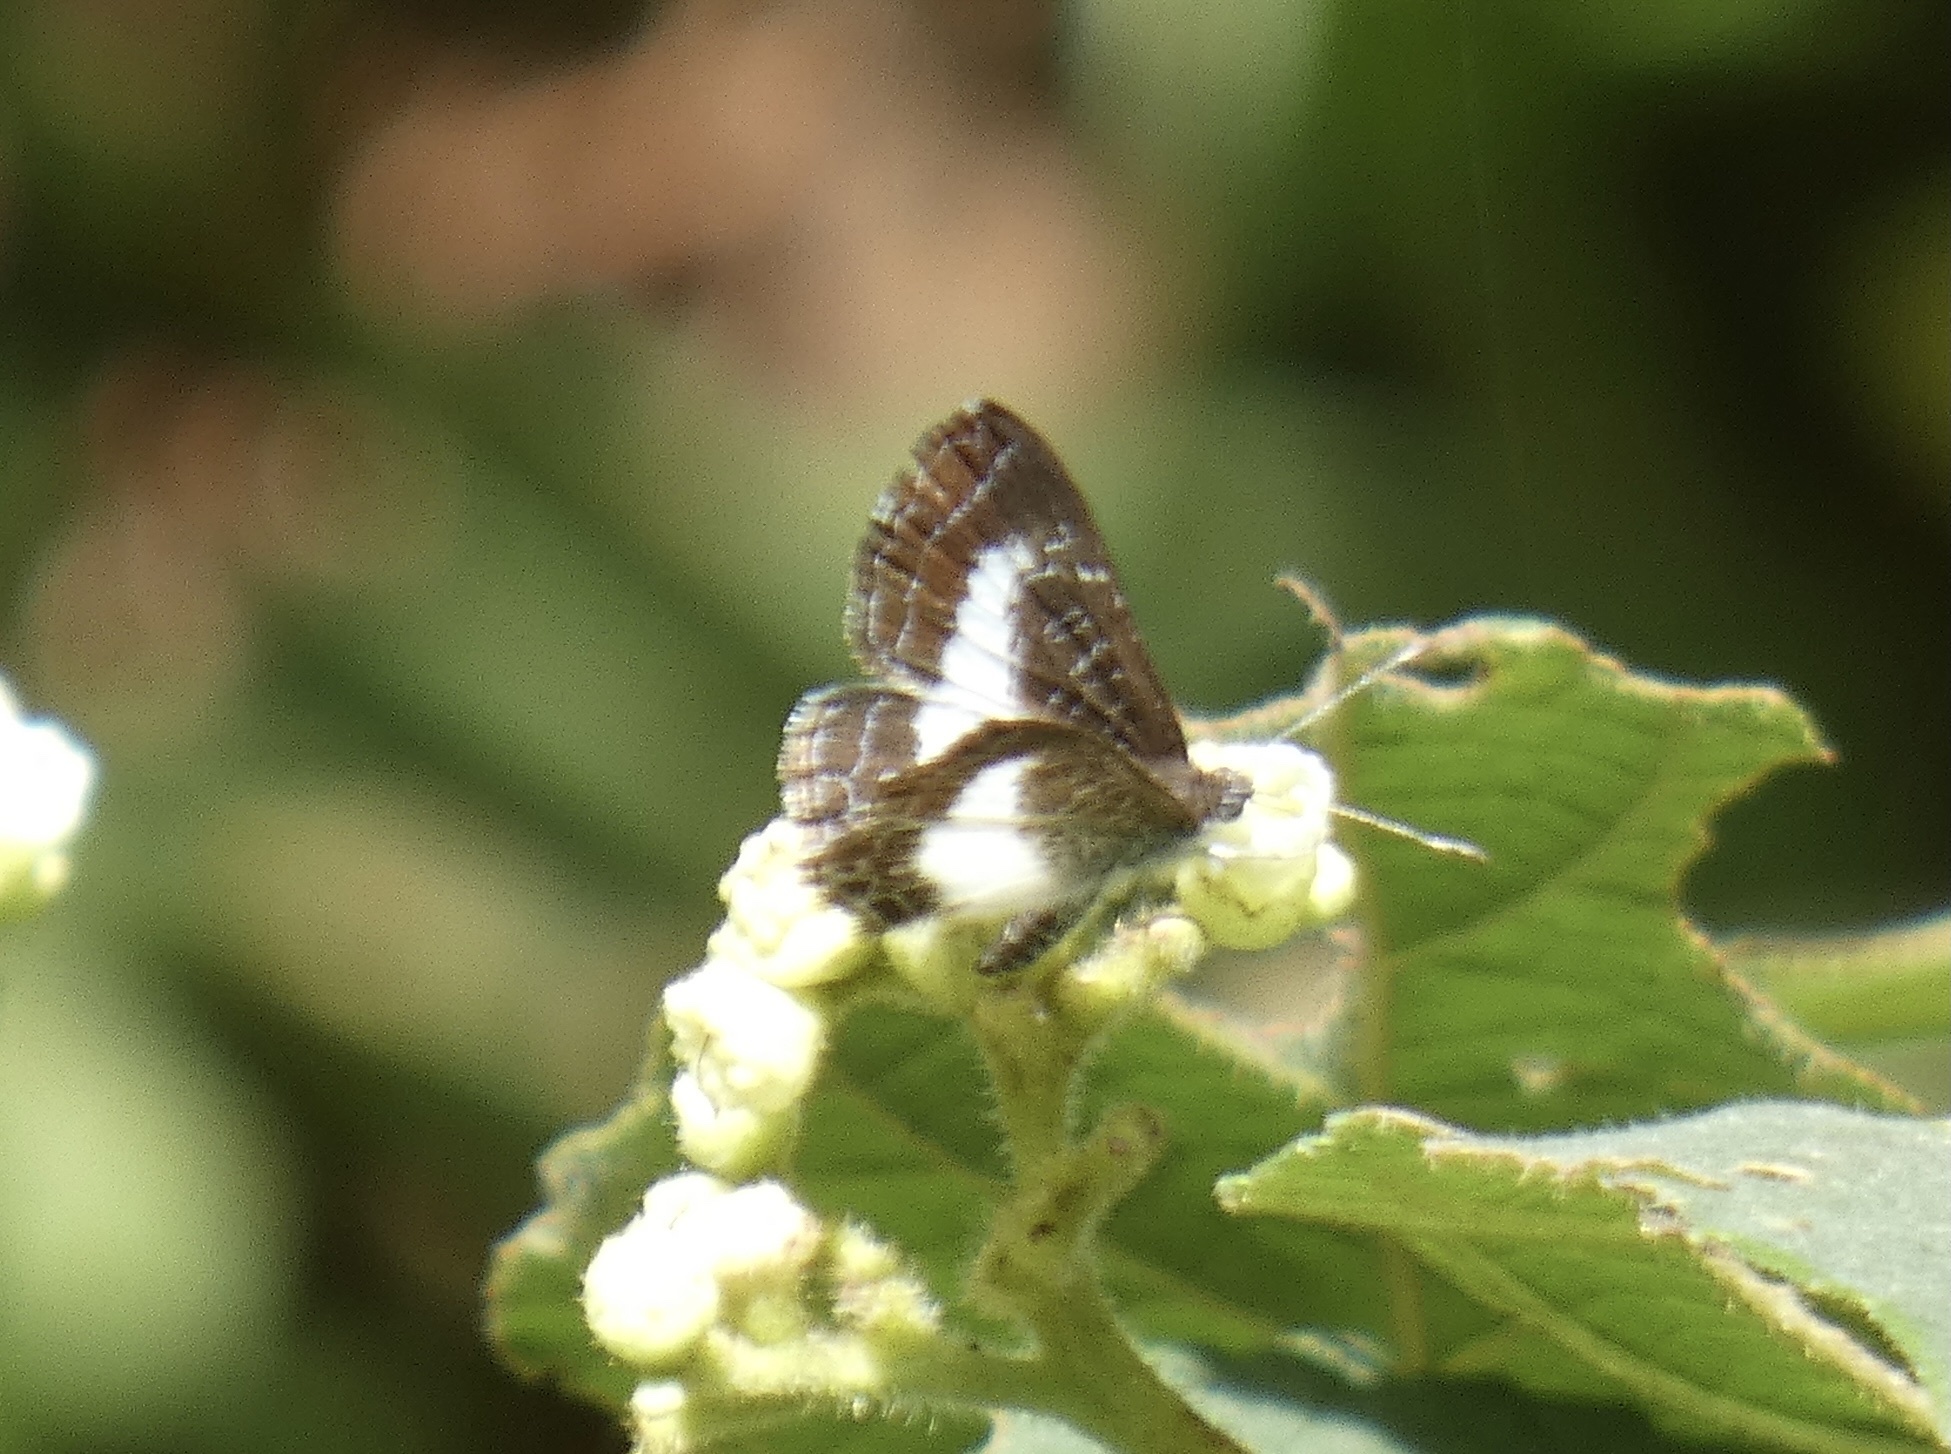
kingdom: Animalia
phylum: Arthropoda
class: Insecta
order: Lepidoptera
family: Riodinidae
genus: Catocyclotis
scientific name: Catocyclotis
